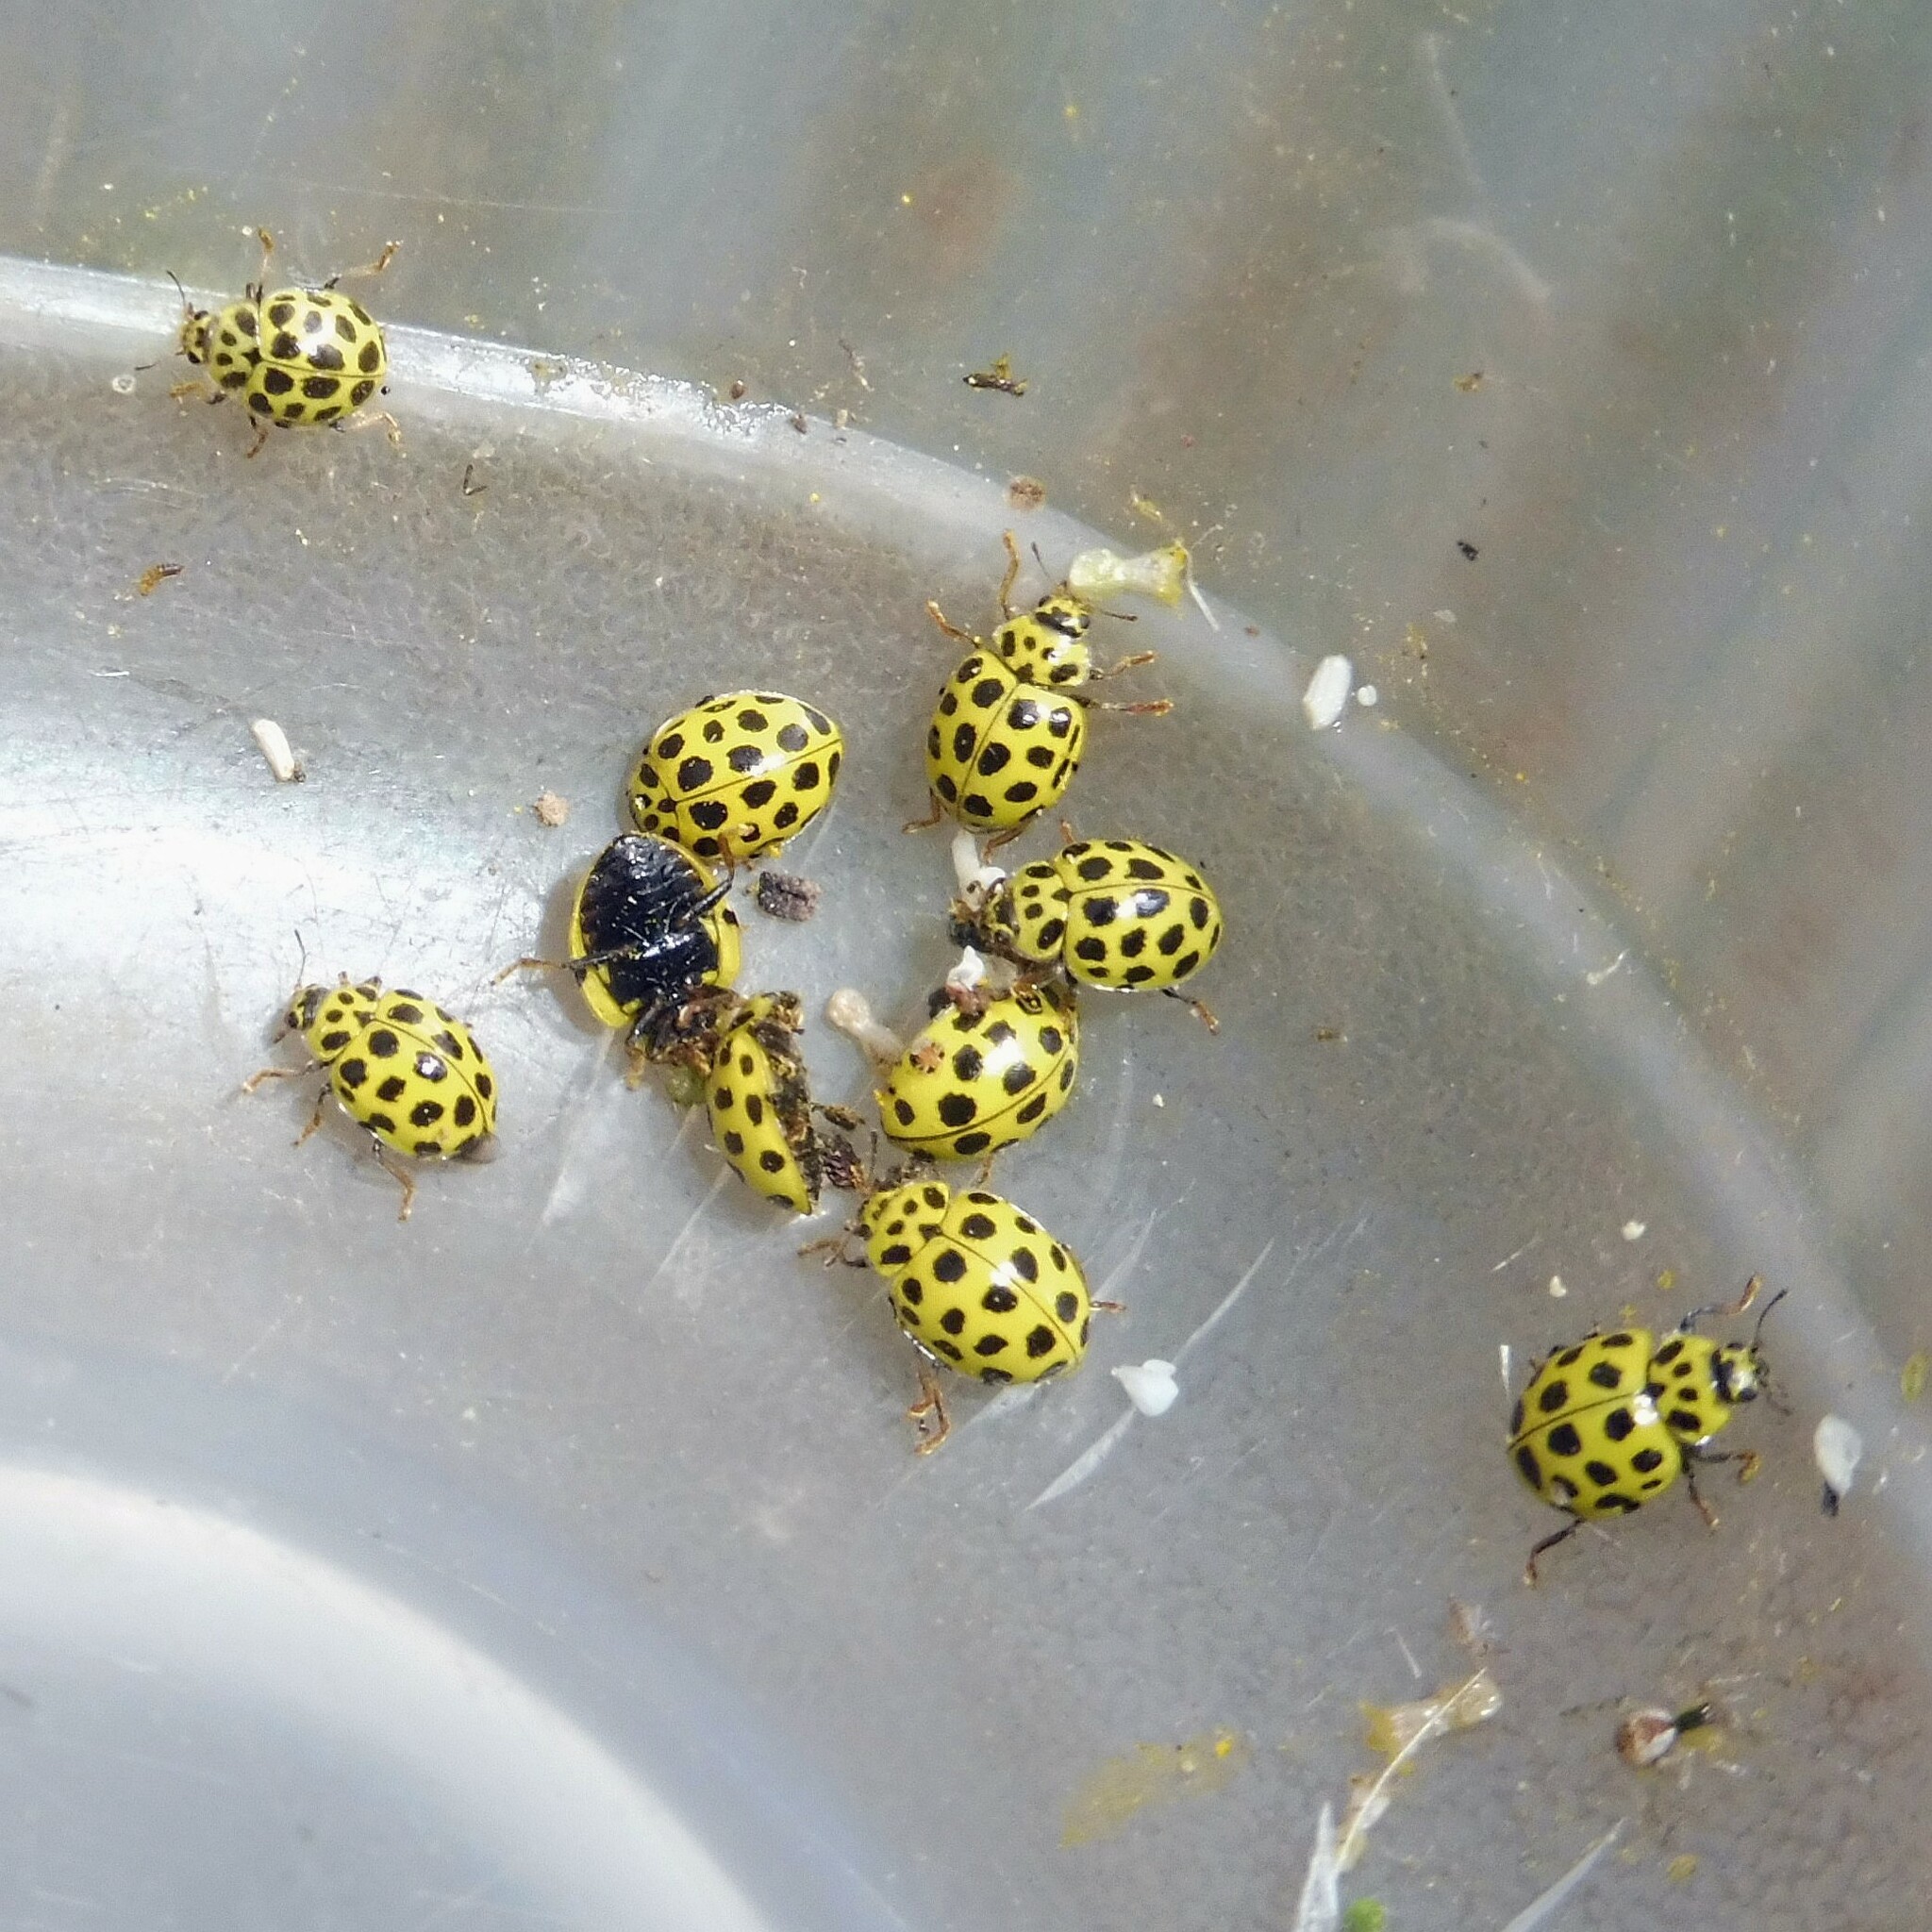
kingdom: Animalia
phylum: Arthropoda
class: Insecta
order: Coleoptera
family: Coccinellidae
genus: Psyllobora
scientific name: Psyllobora vigintiduopunctata
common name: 22-spot ladybird
